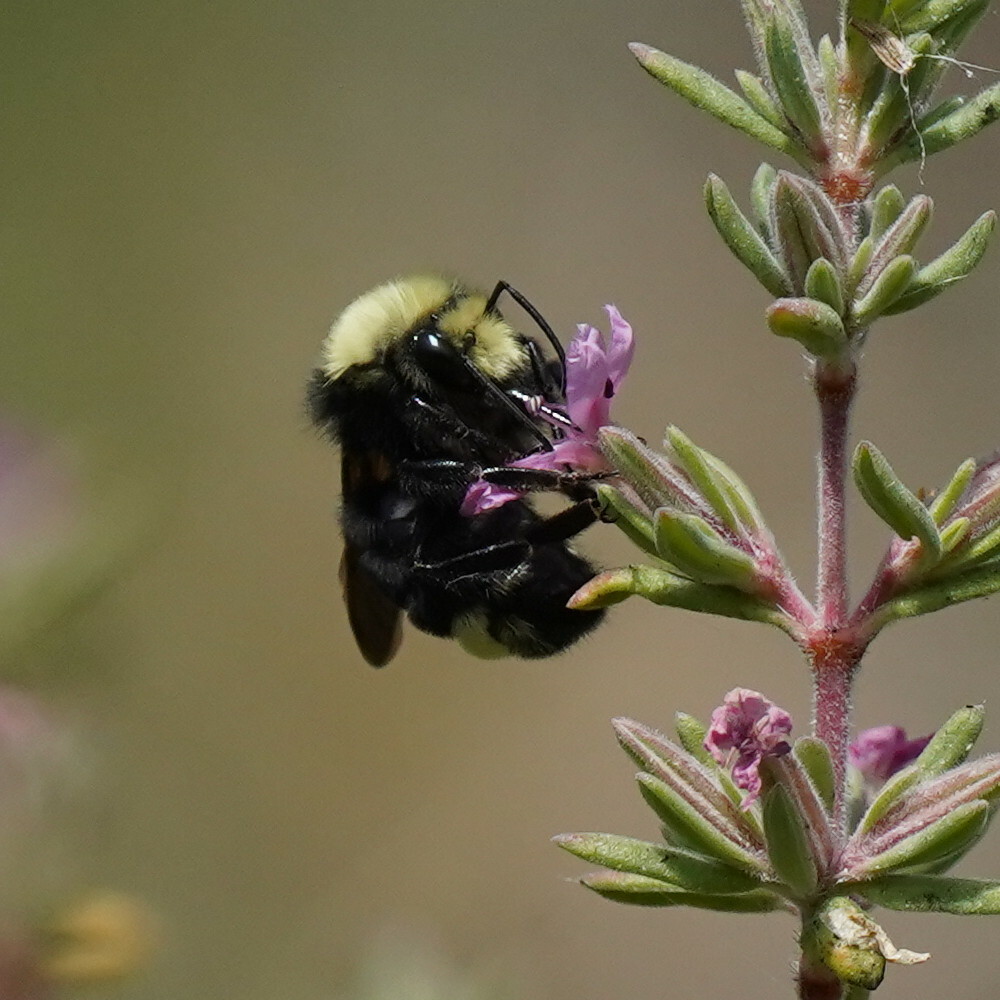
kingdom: Animalia
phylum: Arthropoda
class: Insecta
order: Hymenoptera
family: Apidae
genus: Bombus
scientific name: Bombus vosnesenskii
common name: Vosnesensky bumble bee
